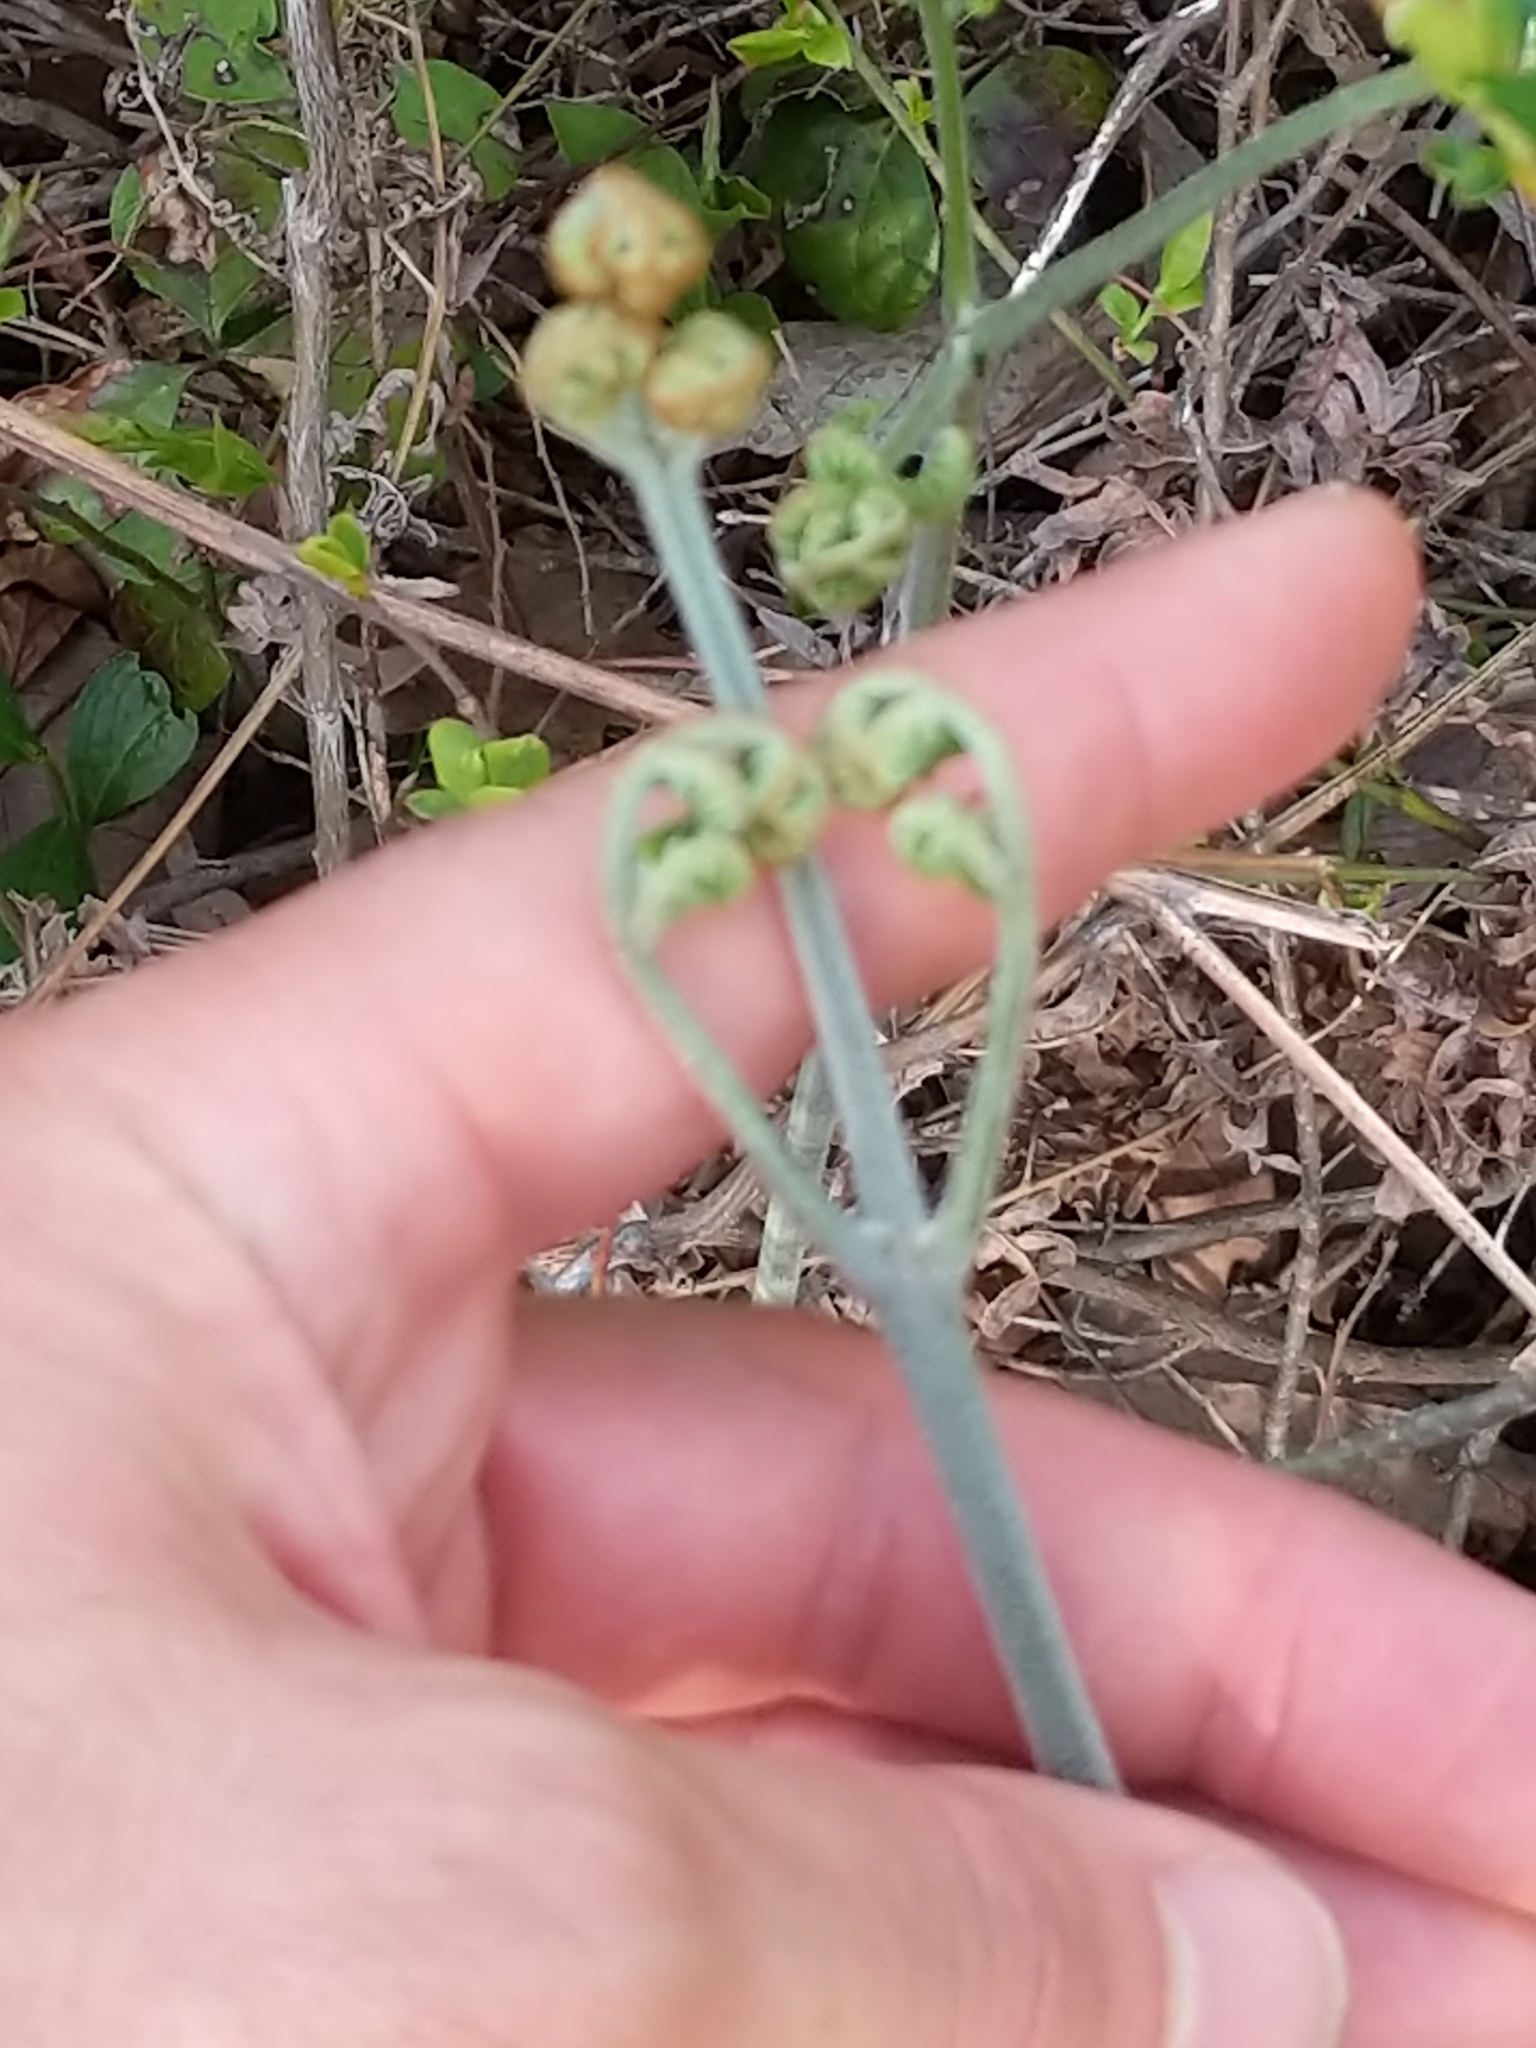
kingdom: Plantae
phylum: Tracheophyta
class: Polypodiopsida
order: Polypodiales
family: Dennstaedtiaceae
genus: Pteridium
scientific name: Pteridium aquilinum
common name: Bracken
